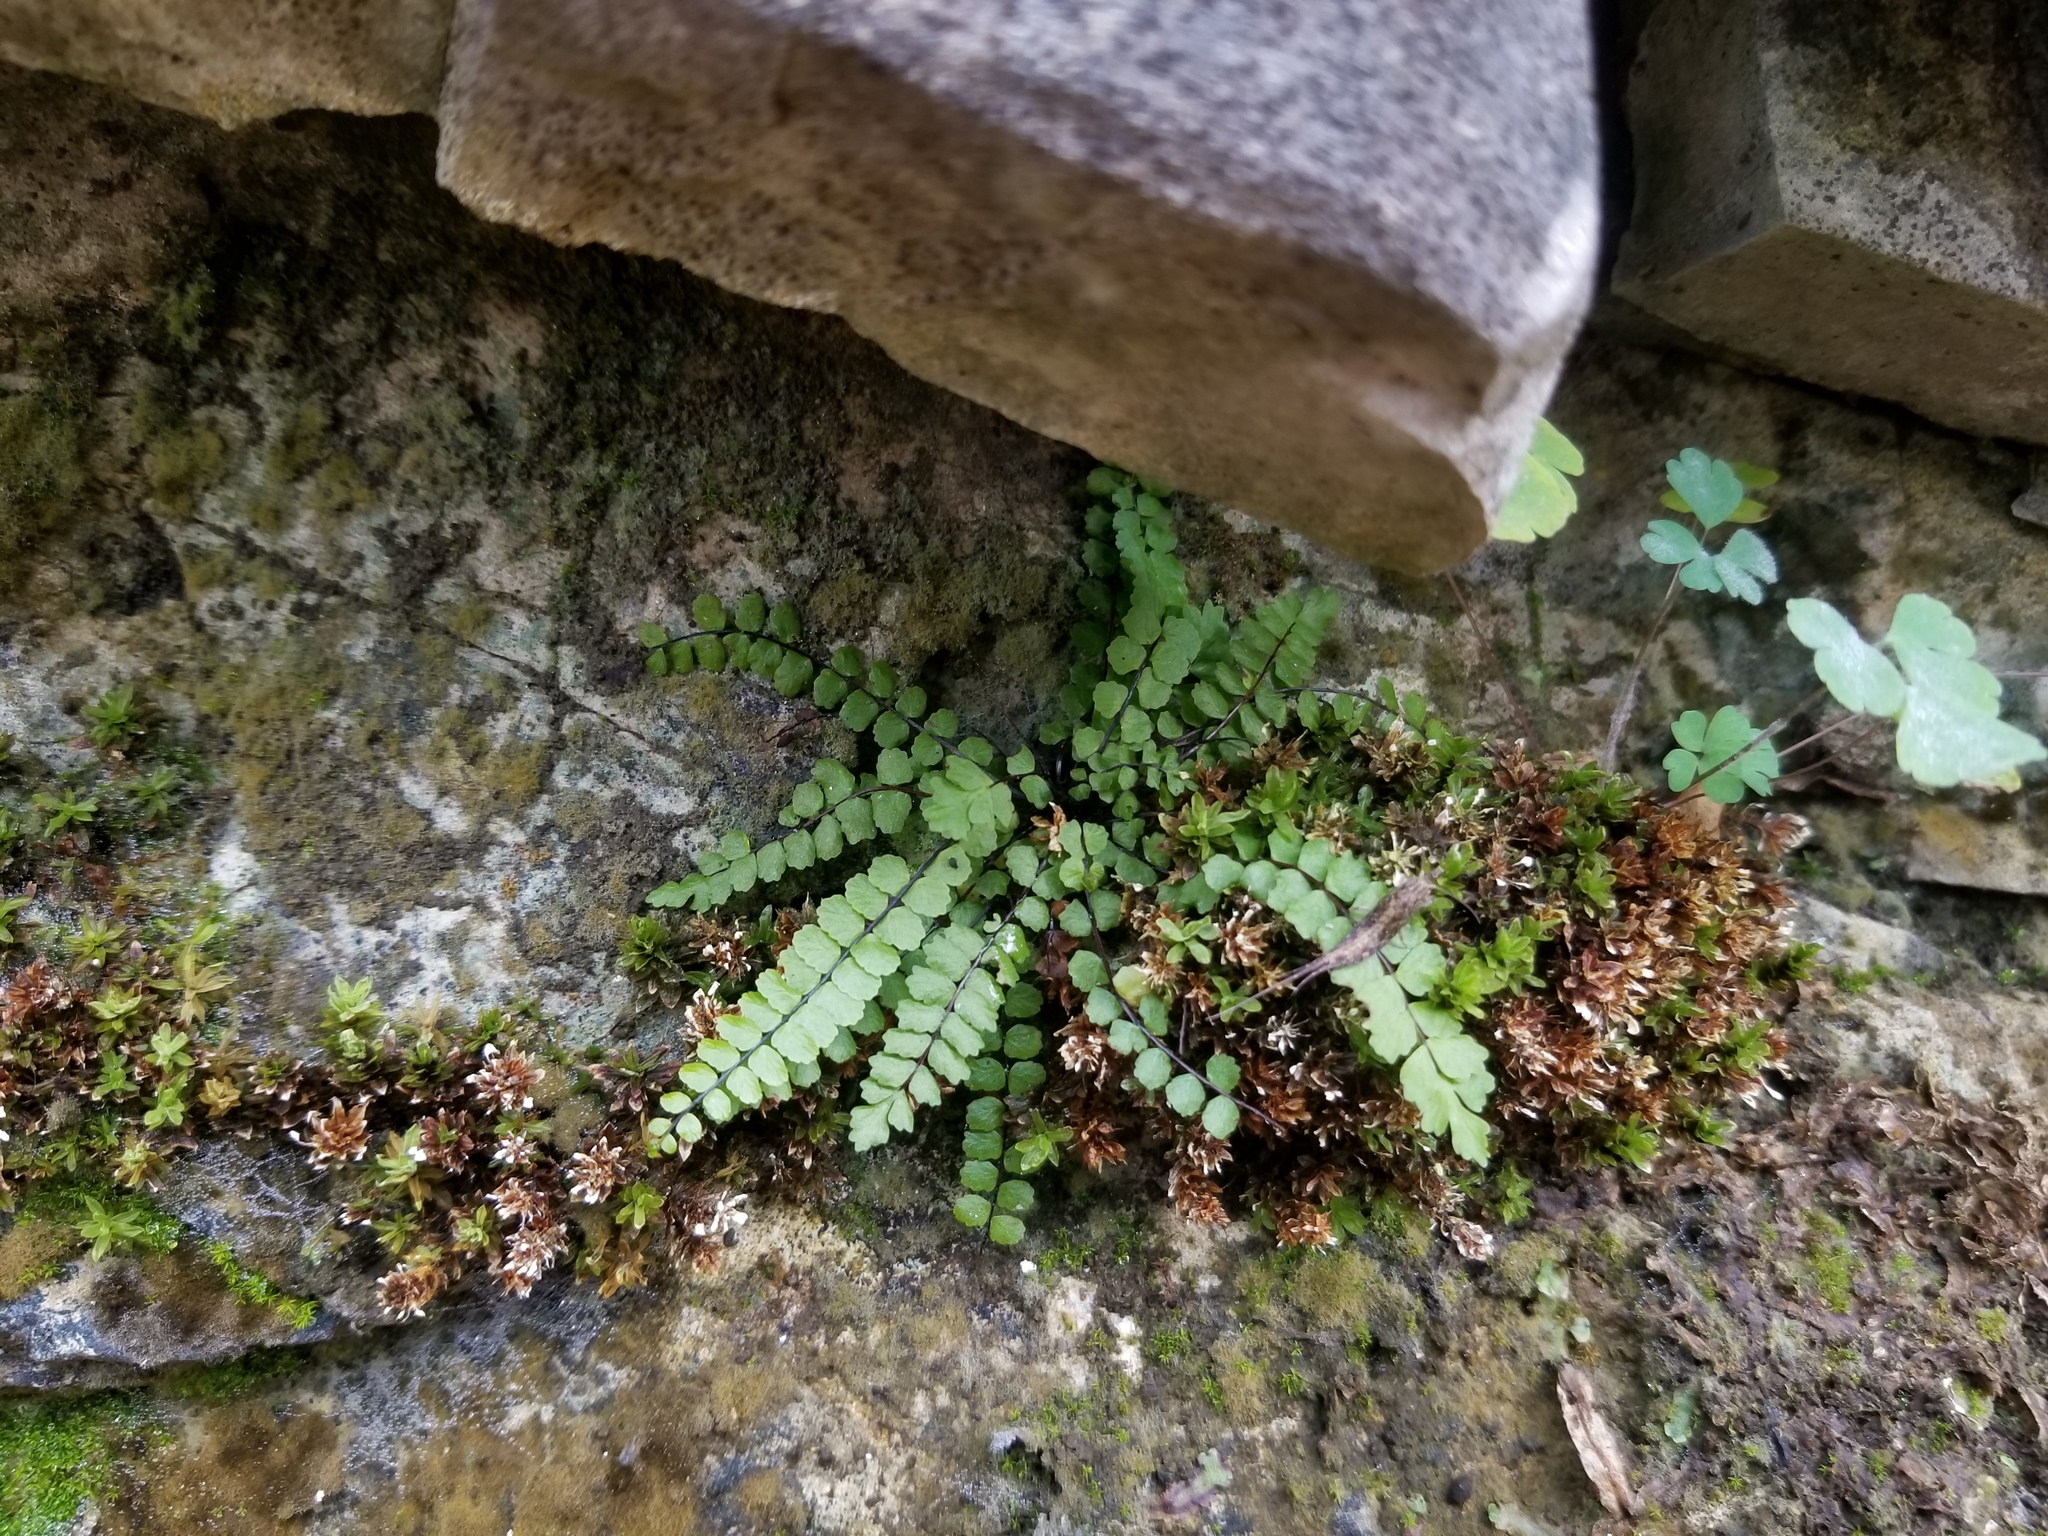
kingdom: Plantae
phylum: Tracheophyta
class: Polypodiopsida
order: Polypodiales
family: Aspleniaceae
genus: Asplenium
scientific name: Asplenium trichomanes
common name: Maidenhair spleenwort
